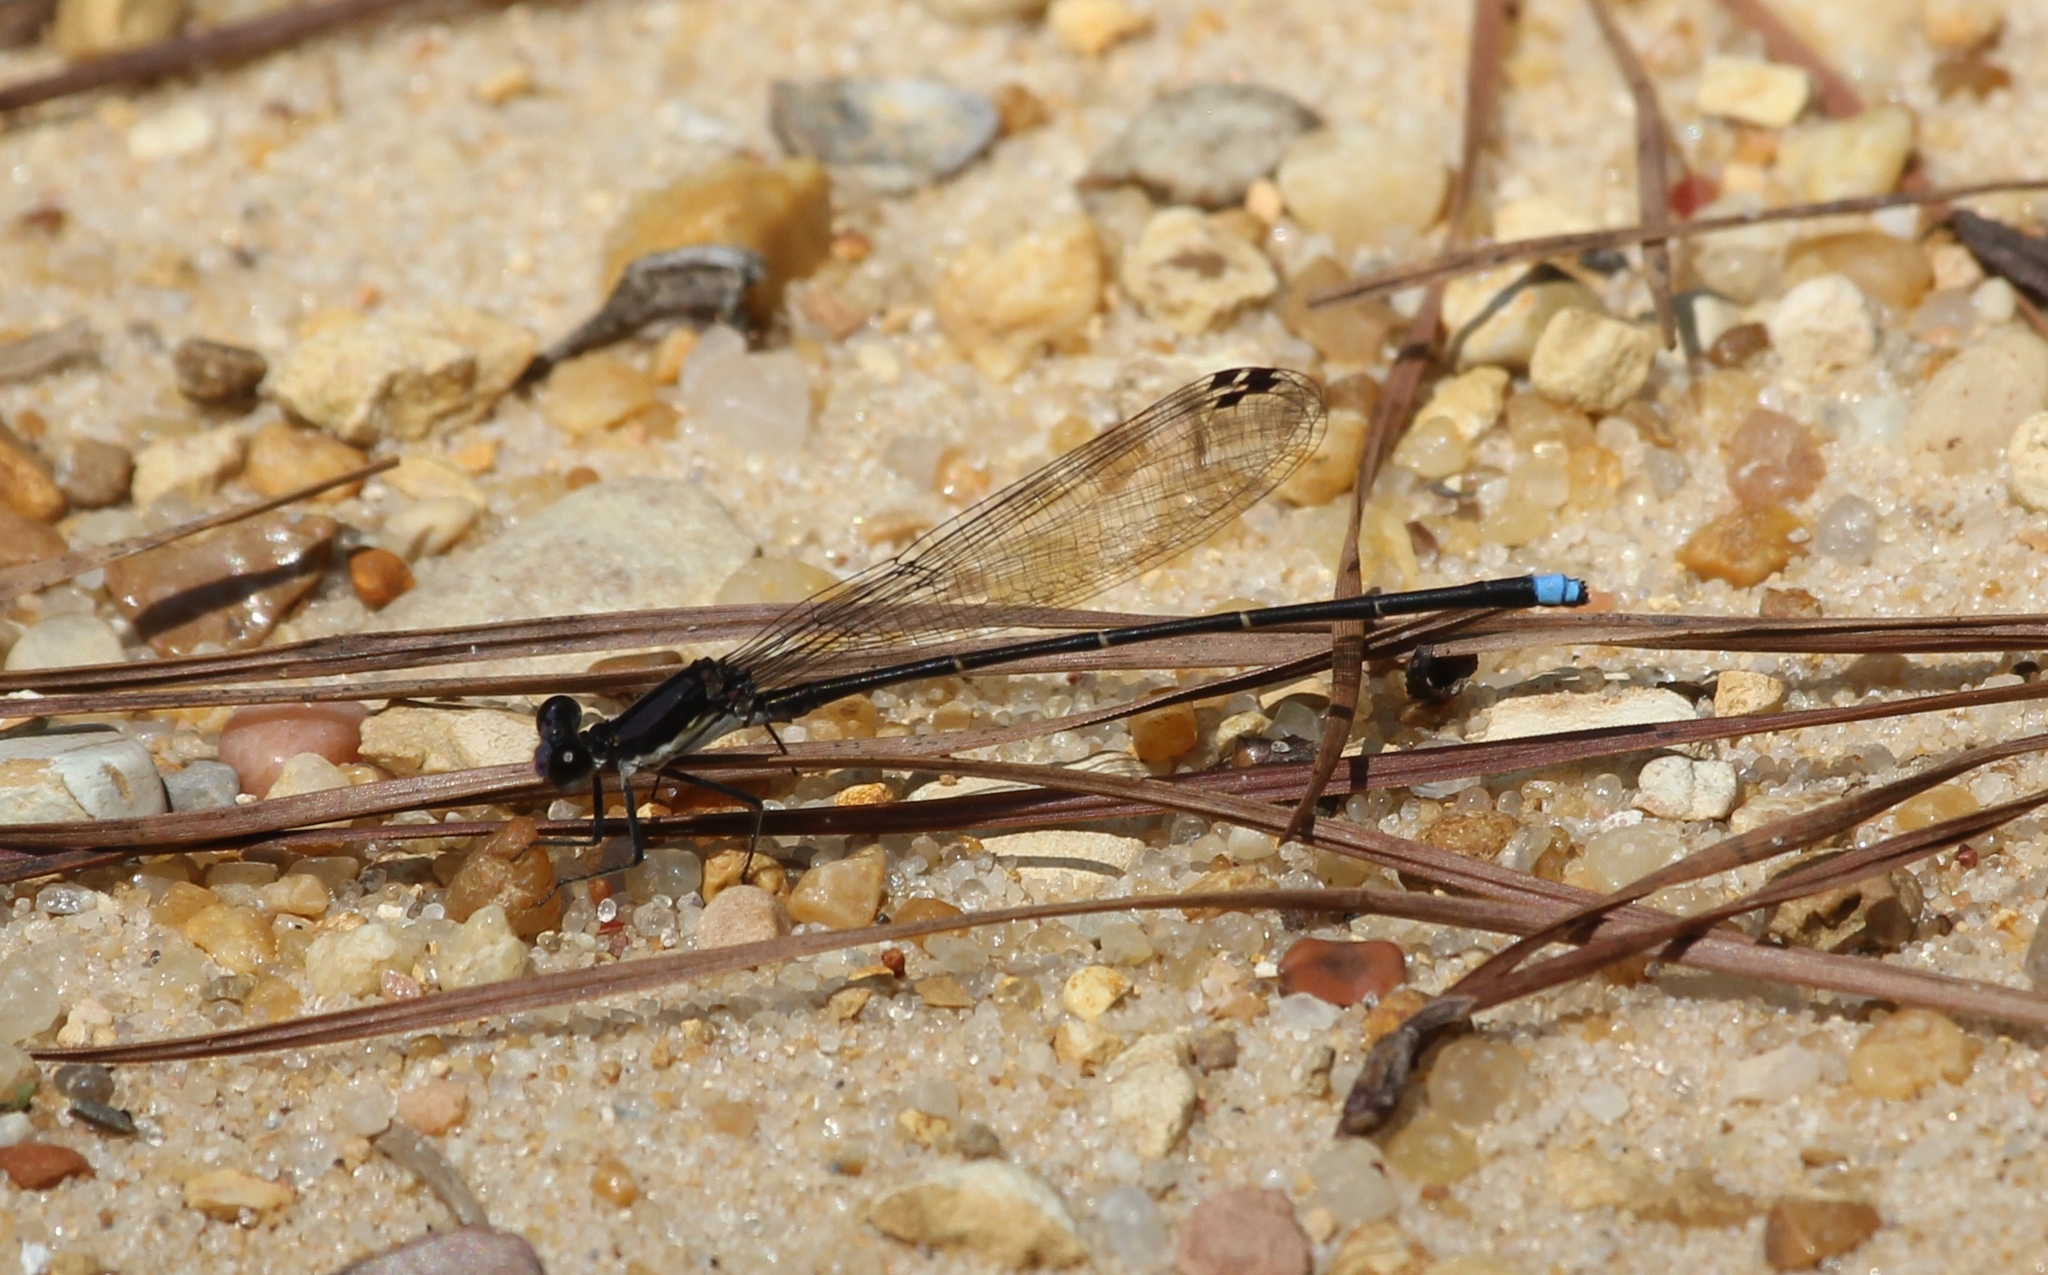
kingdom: Animalia
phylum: Arthropoda
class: Insecta
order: Odonata
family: Coenagrionidae
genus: Argia
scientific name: Argia tibialis
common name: Blue-tipped dancer
